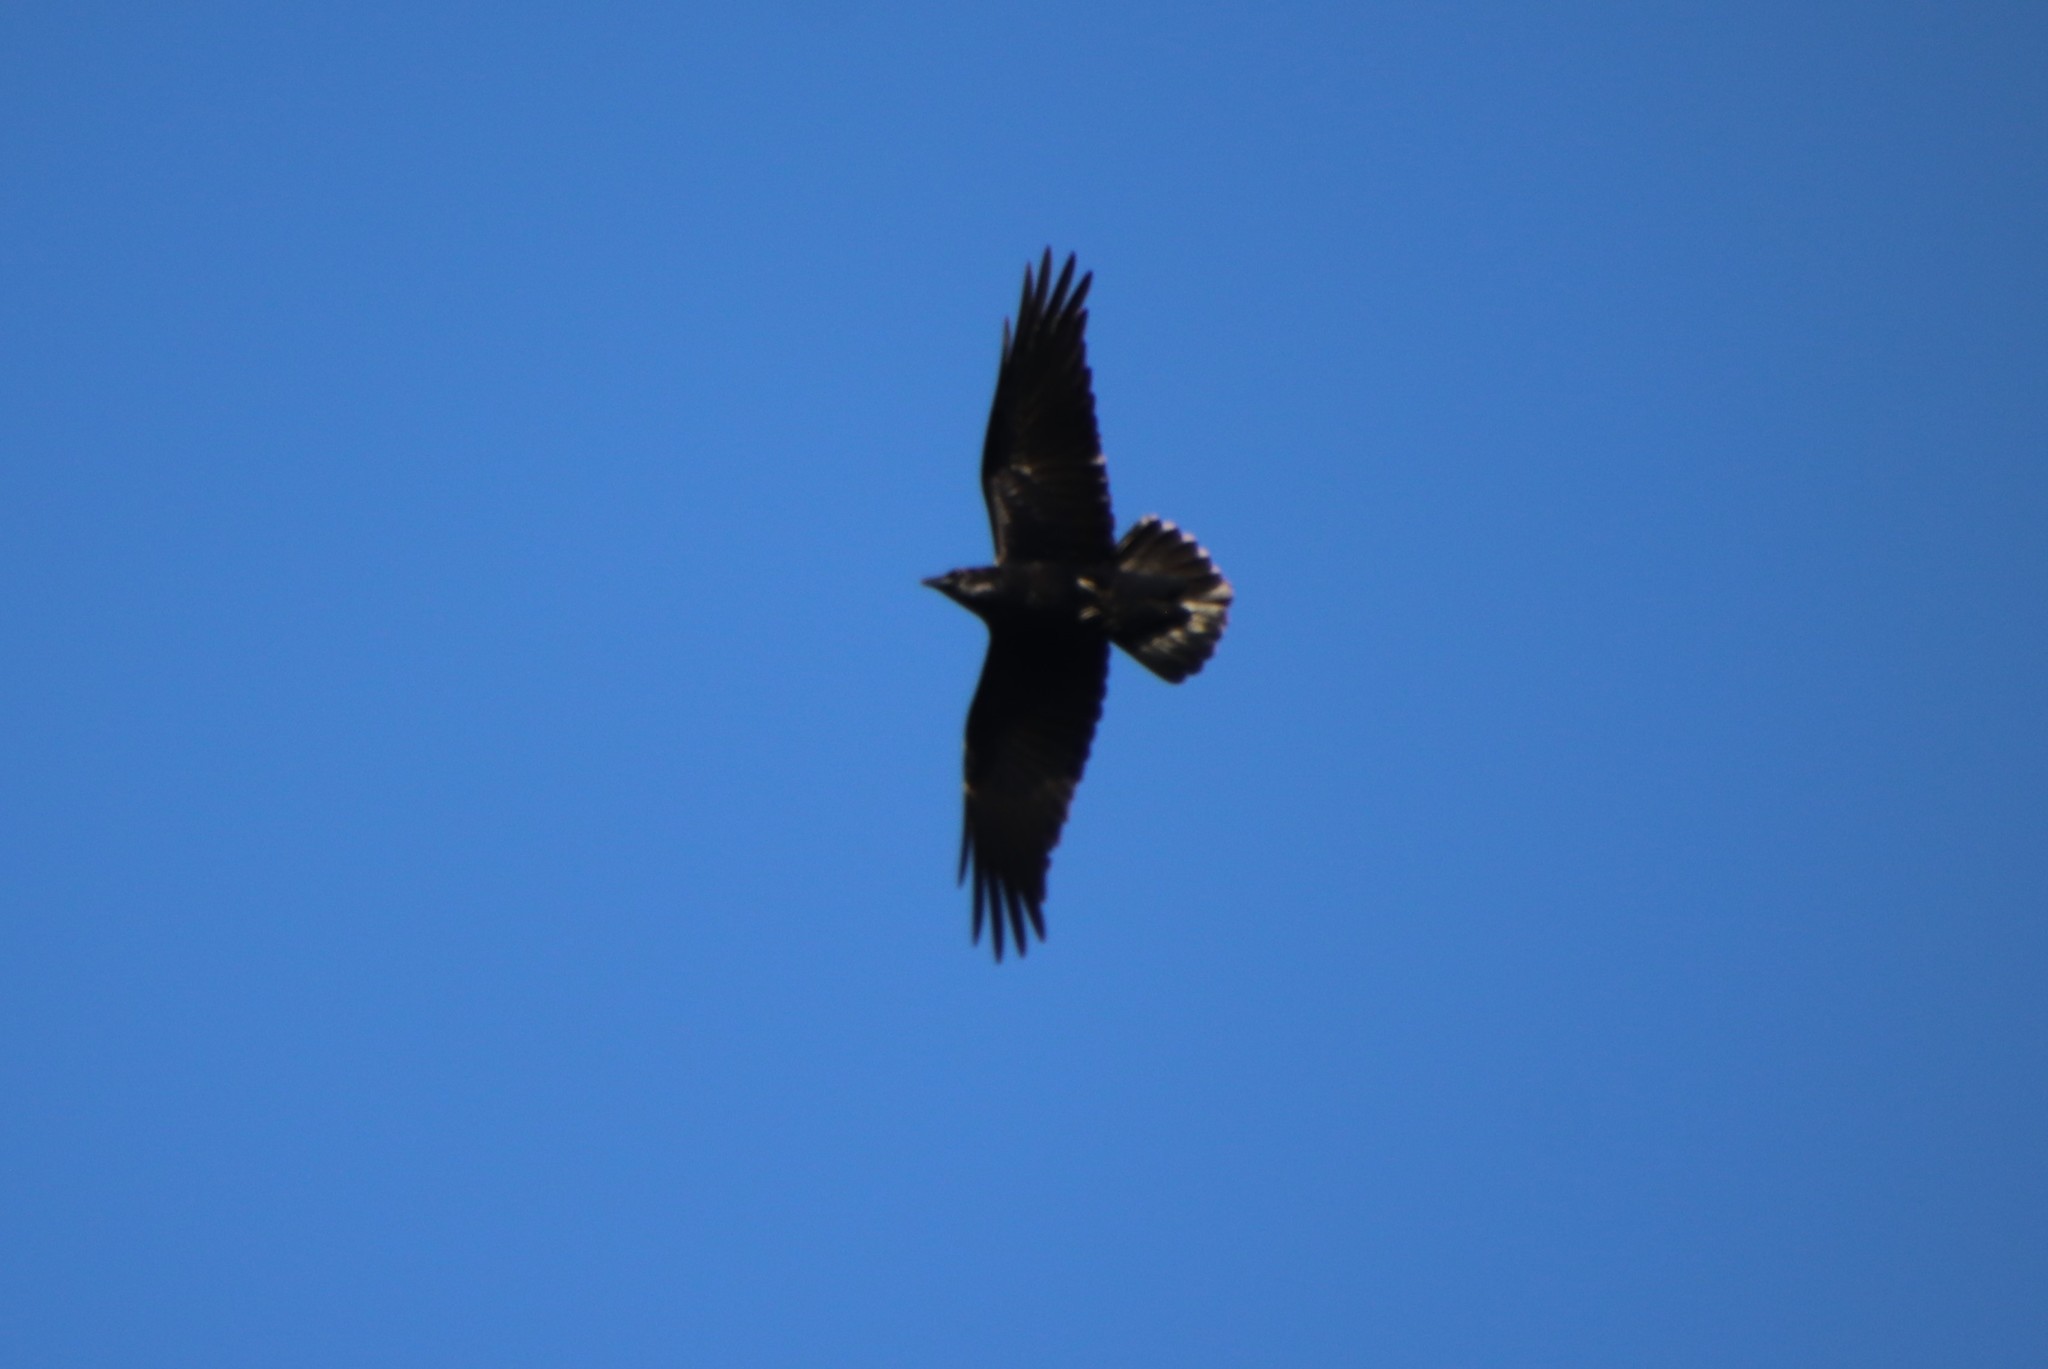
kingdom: Animalia
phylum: Chordata
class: Aves
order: Passeriformes
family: Corvidae
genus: Corvus
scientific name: Corvus corax
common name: Common raven
